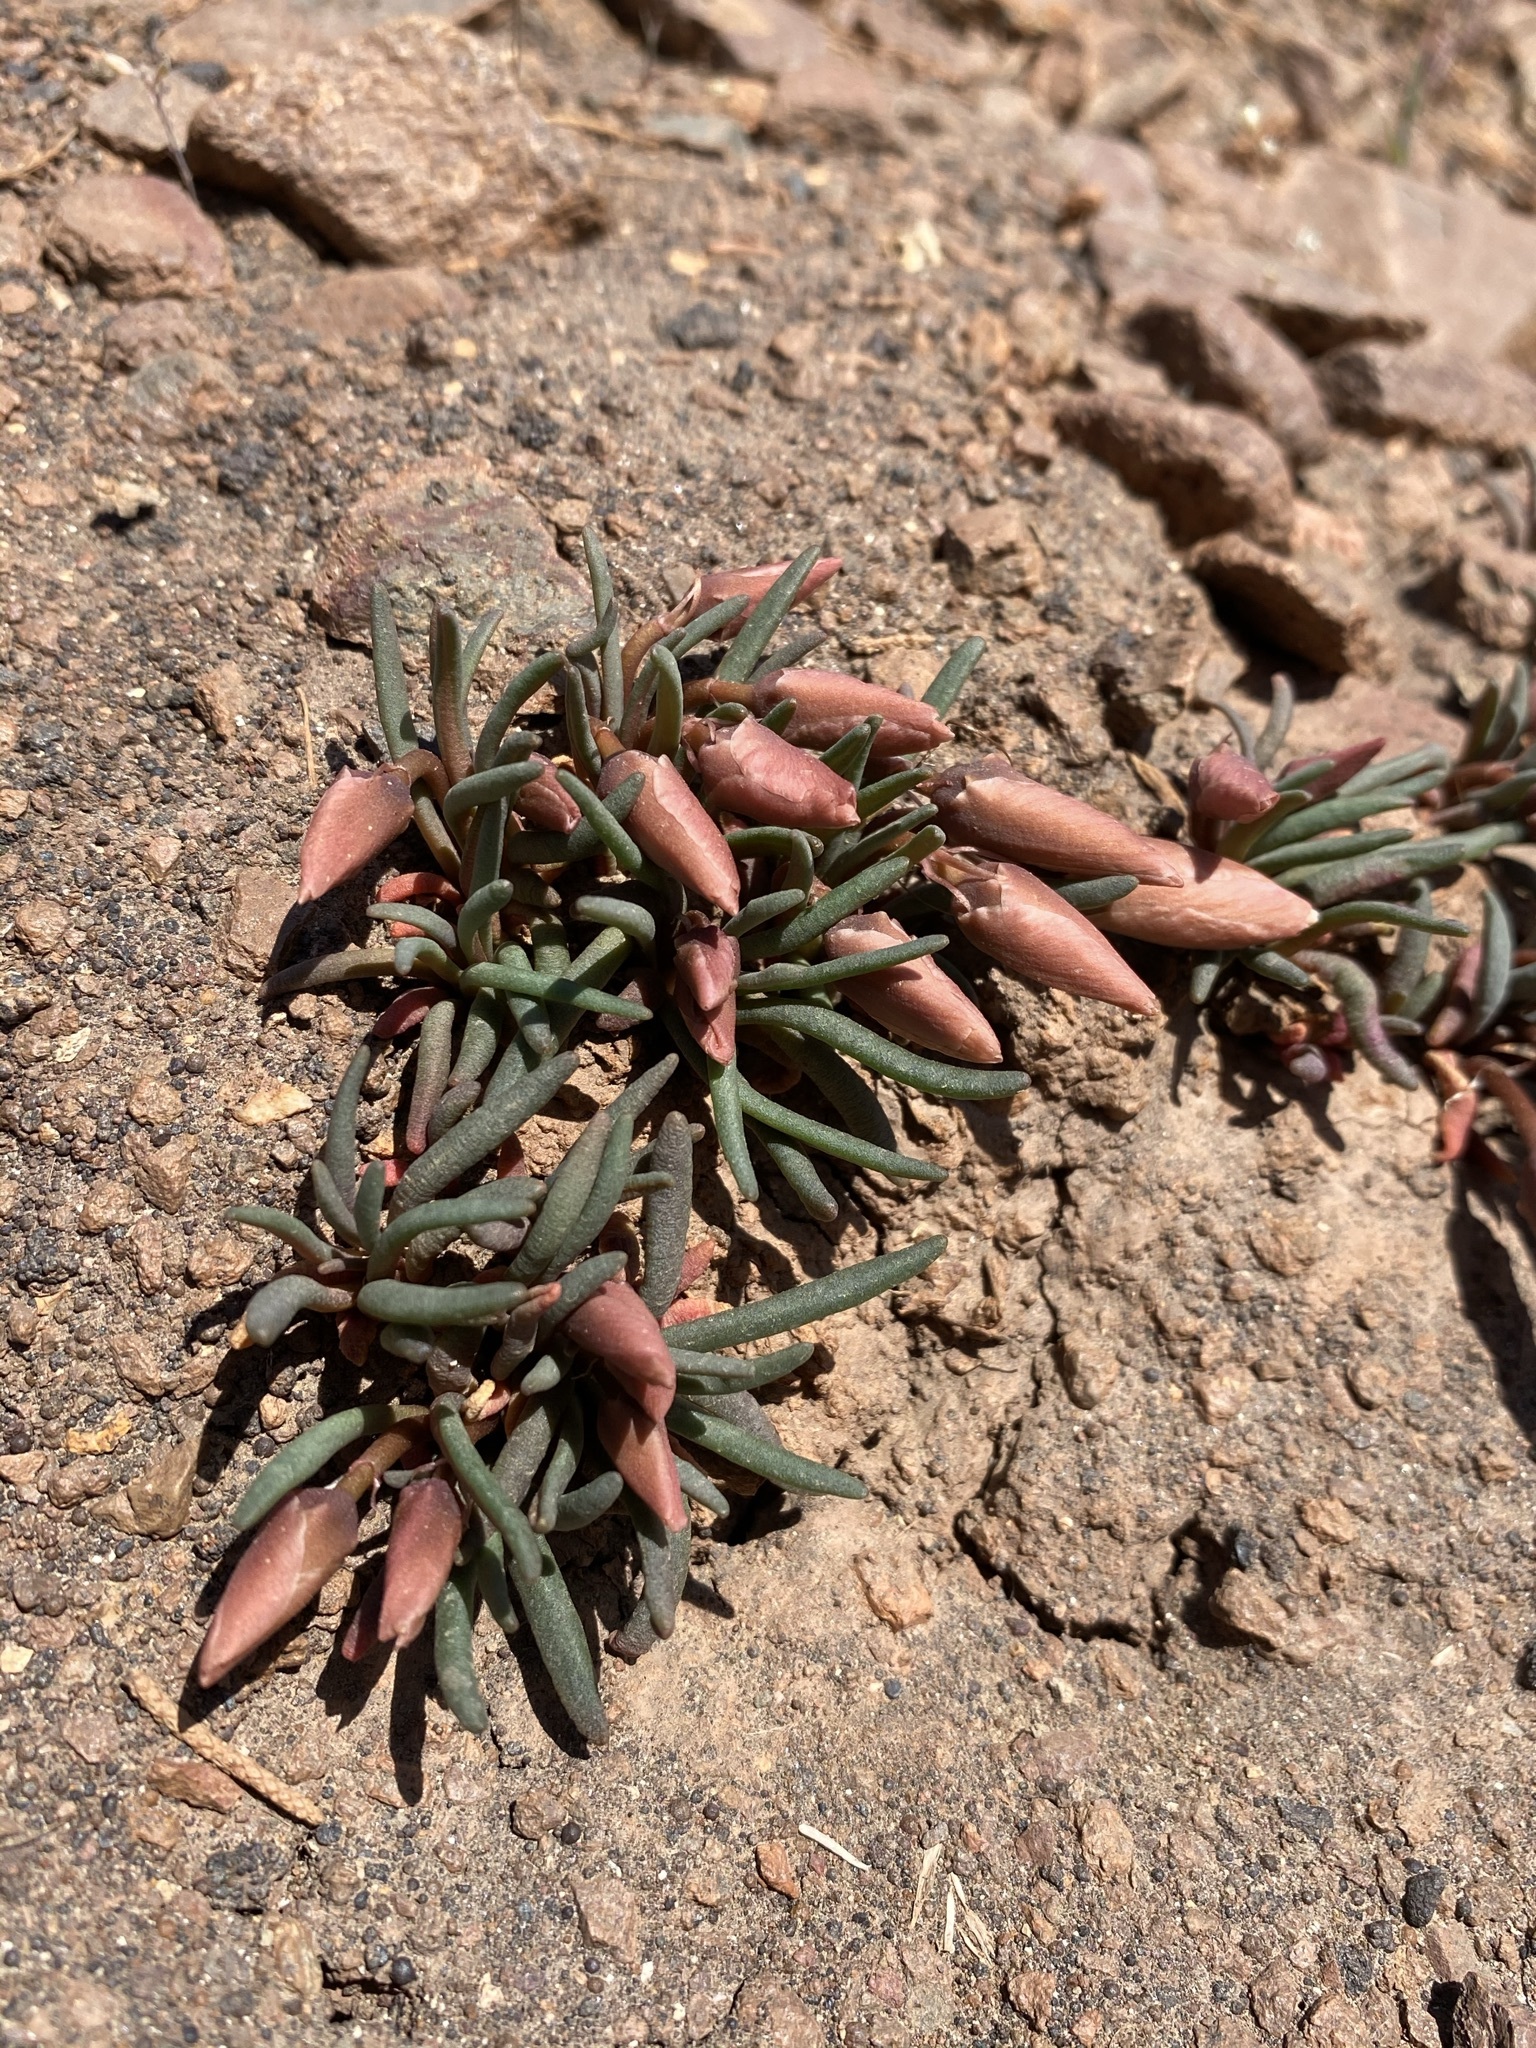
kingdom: Plantae
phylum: Tracheophyta
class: Magnoliopsida
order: Caryophyllales
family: Montiaceae
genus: Lewisia
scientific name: Lewisia rediviva
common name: Bitter-root
